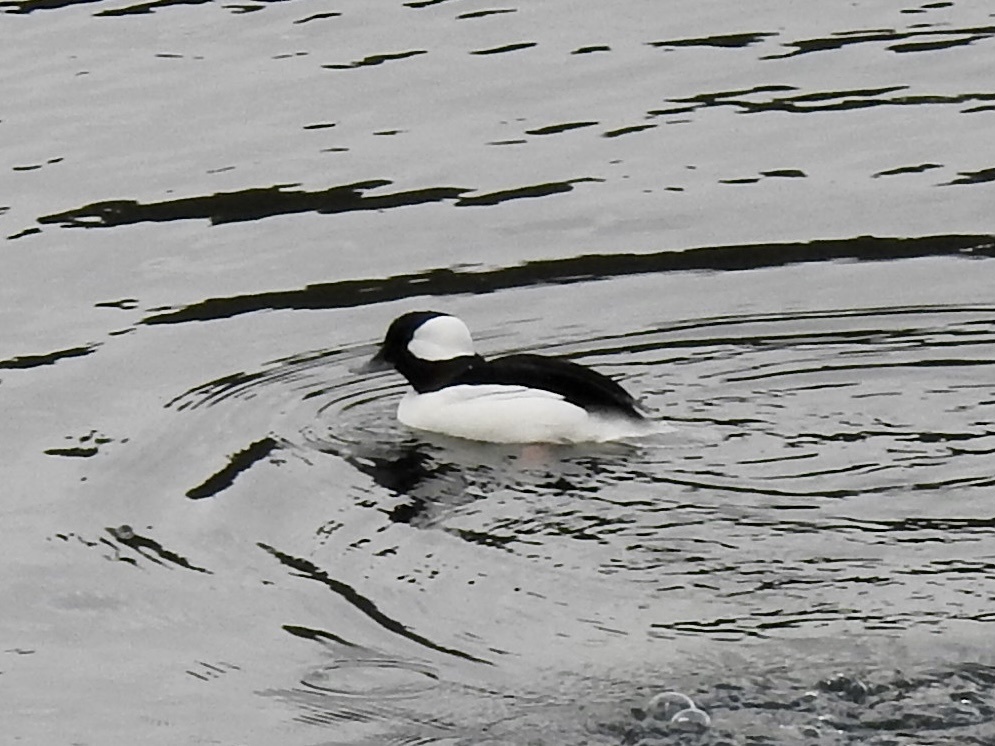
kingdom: Animalia
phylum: Chordata
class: Aves
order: Anseriformes
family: Anatidae
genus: Bucephala
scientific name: Bucephala albeola
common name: Bufflehead
